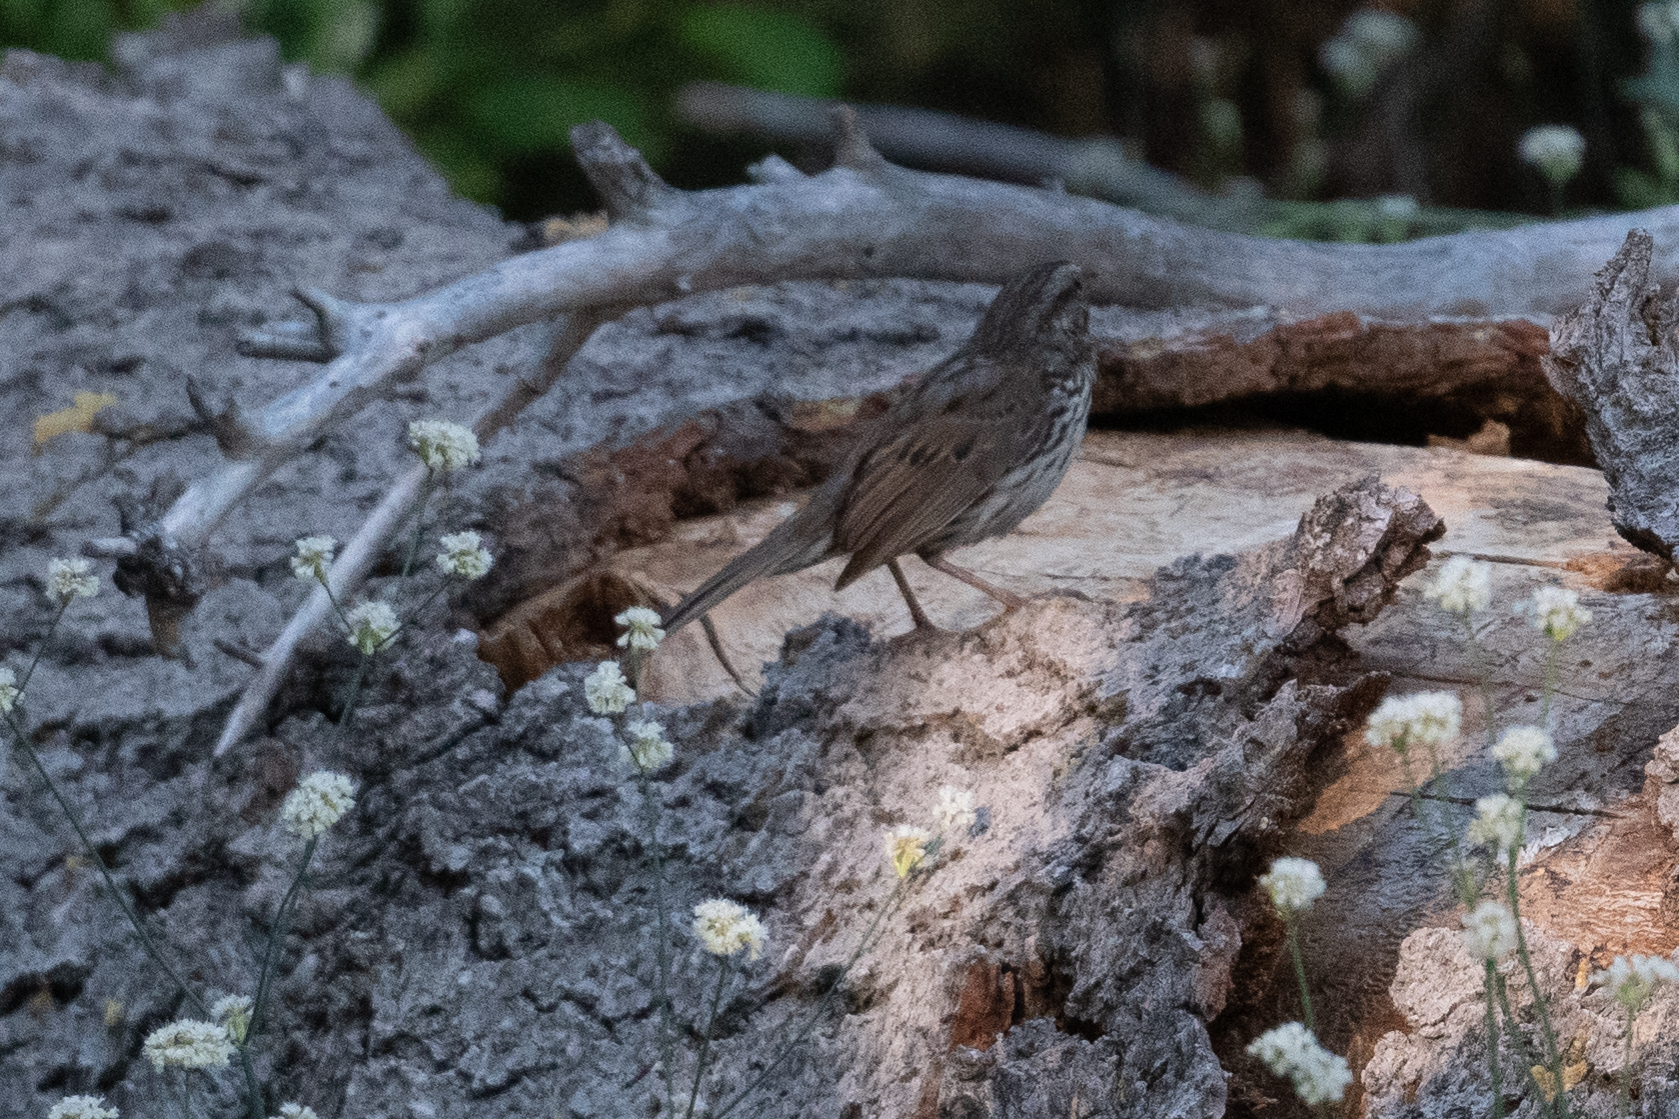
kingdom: Animalia
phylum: Chordata
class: Aves
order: Passeriformes
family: Passerellidae
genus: Melospiza
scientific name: Melospiza melodia
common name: Song sparrow
